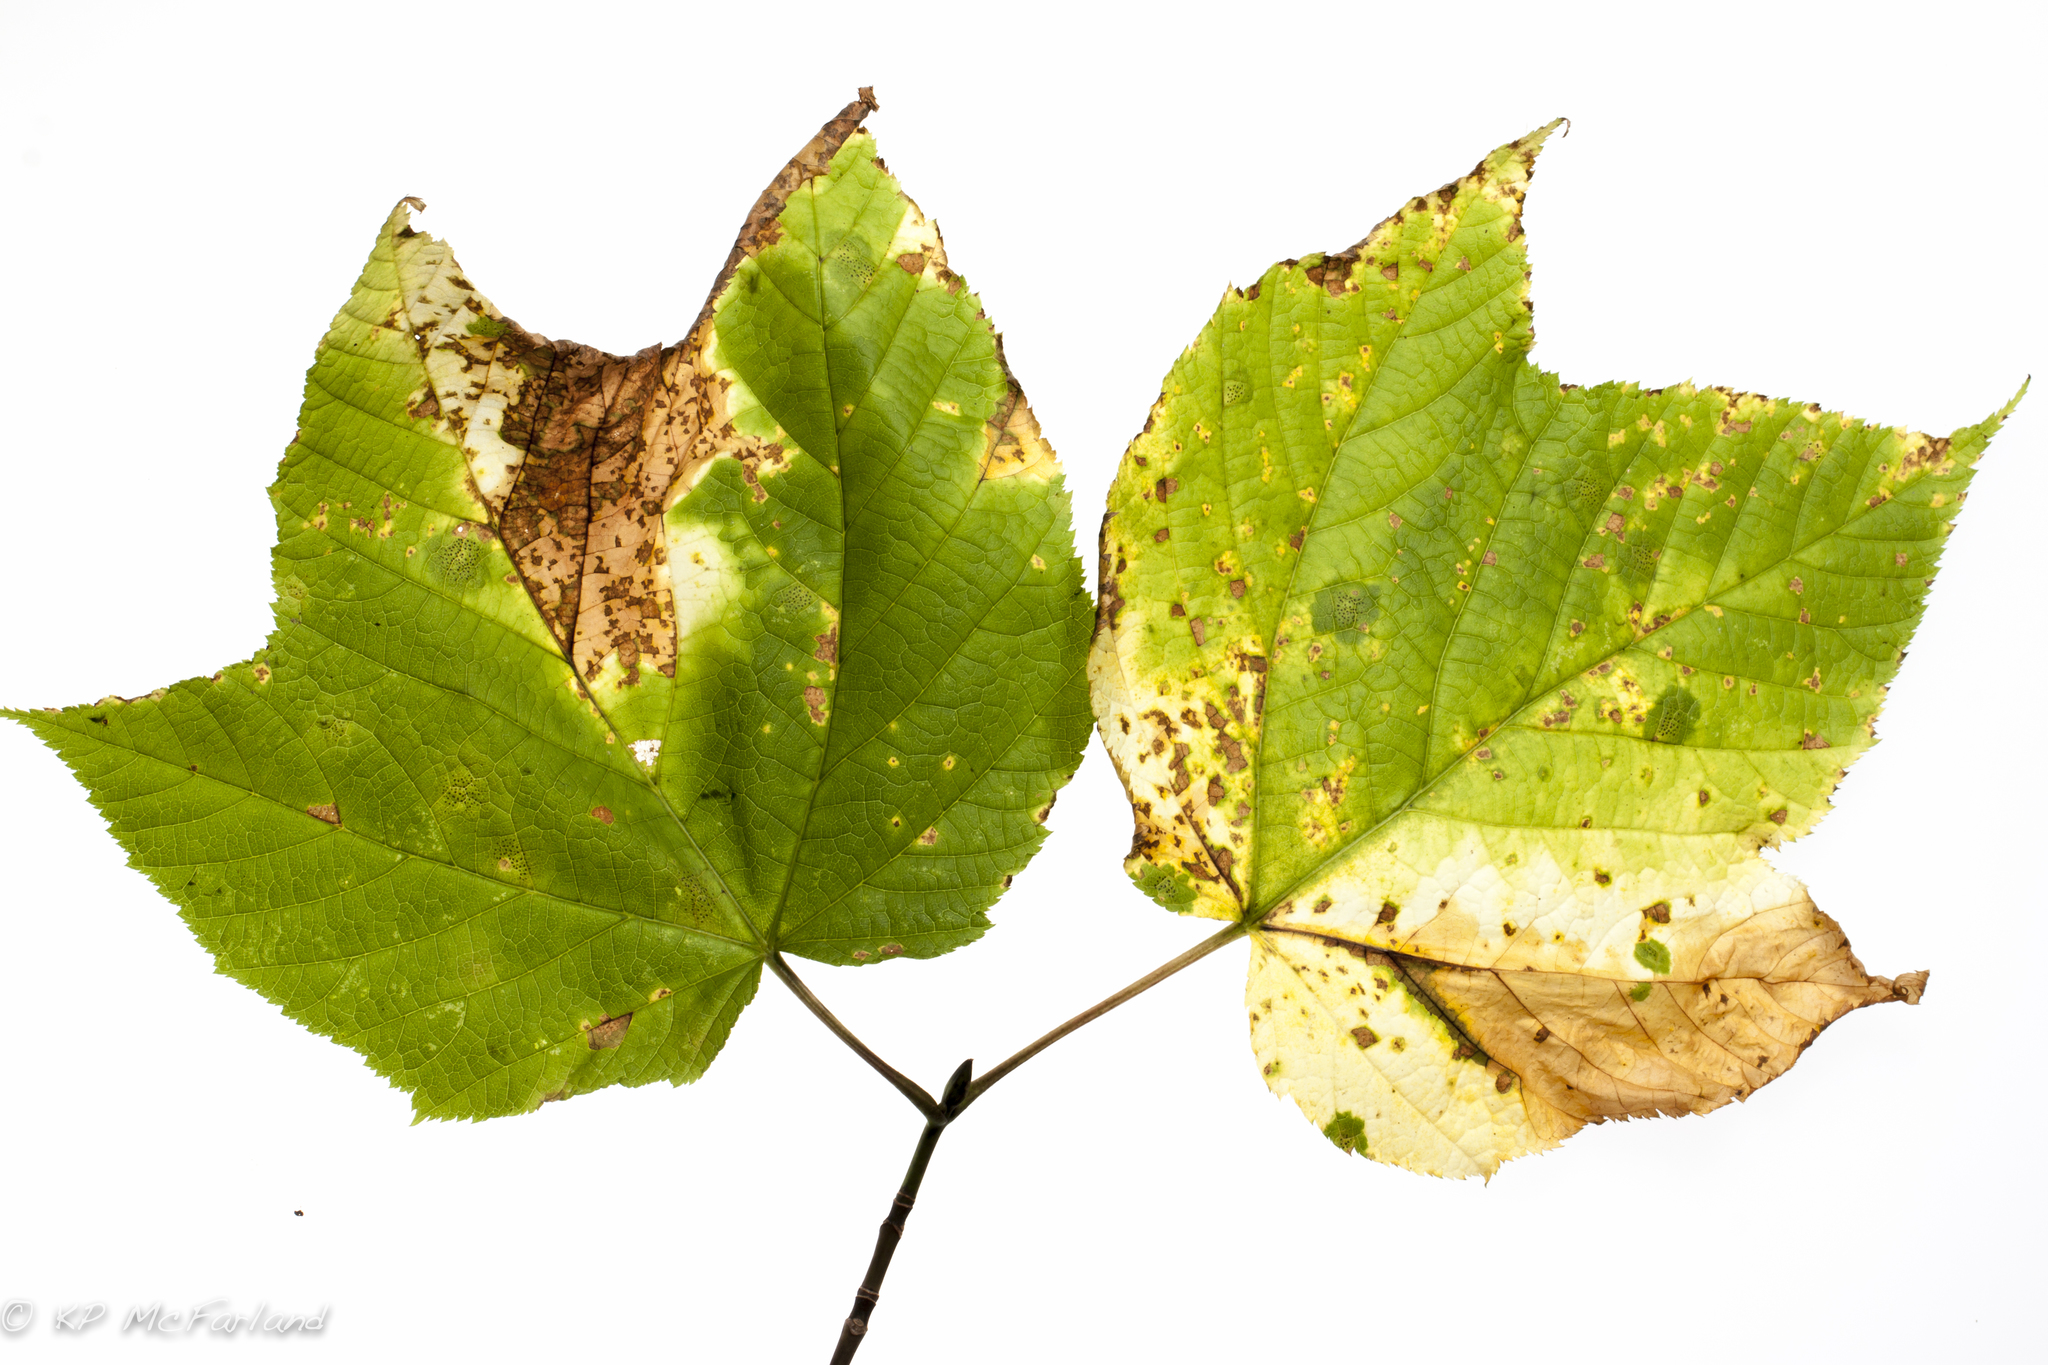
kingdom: Plantae
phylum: Tracheophyta
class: Magnoliopsida
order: Sapindales
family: Sapindaceae
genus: Acer
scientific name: Acer pensylvanicum
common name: Moosewood
